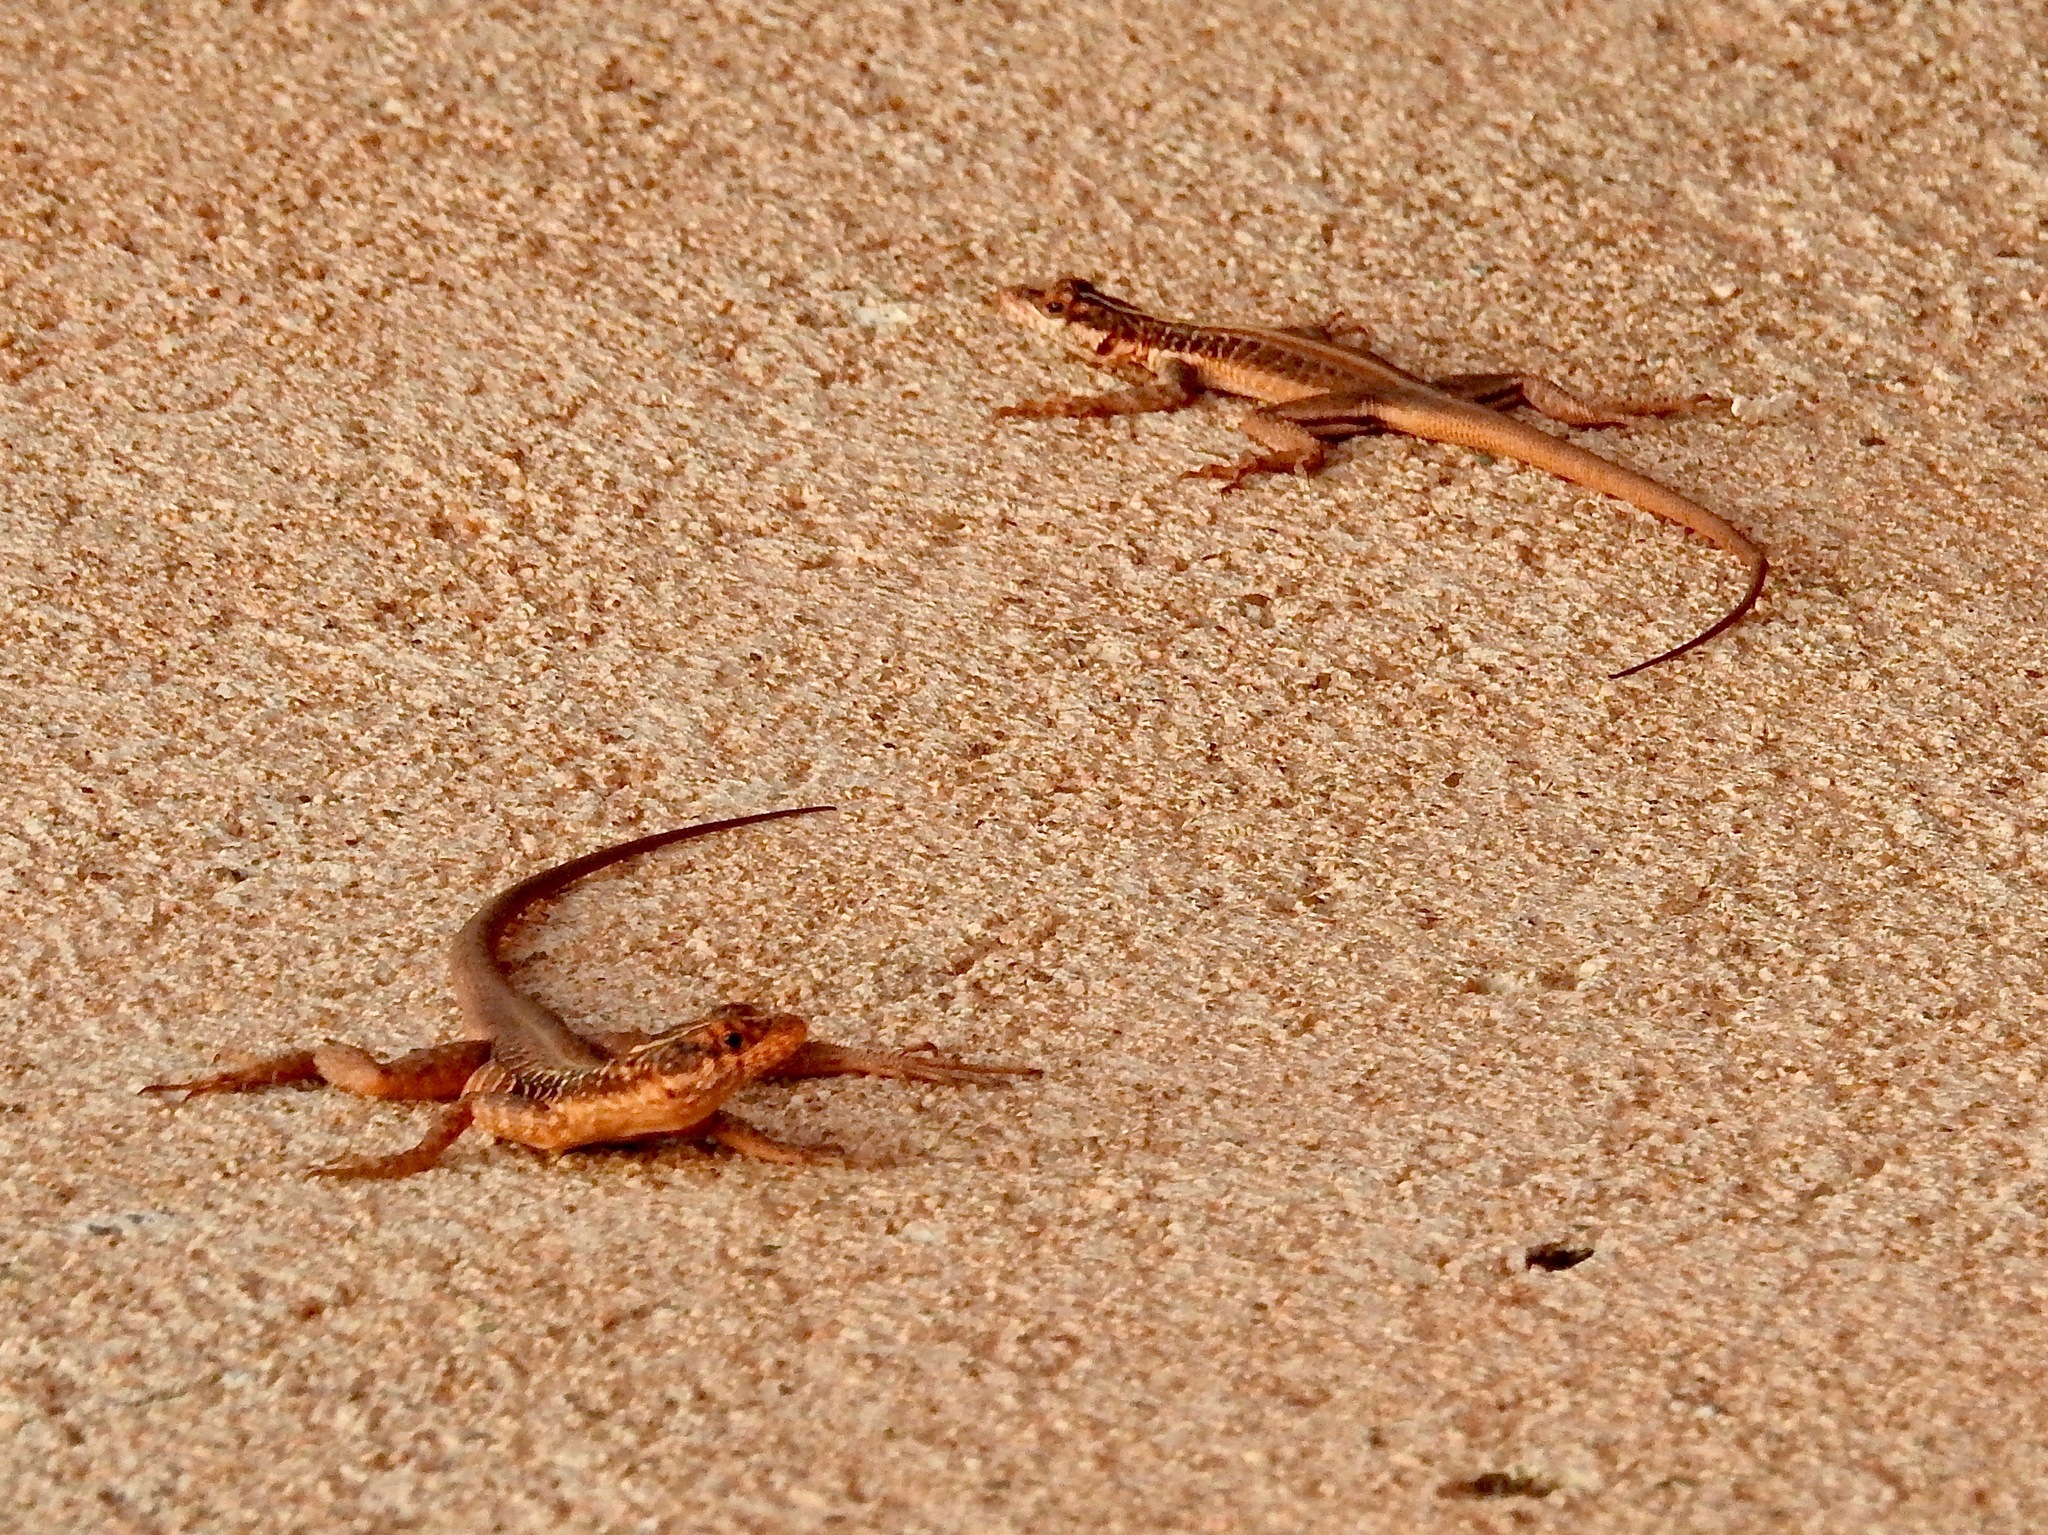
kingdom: Animalia
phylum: Chordata
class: Squamata
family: Tropiduridae
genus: Tropidurus
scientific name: Tropidurus semitaeniatus
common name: Striped lava lizard
